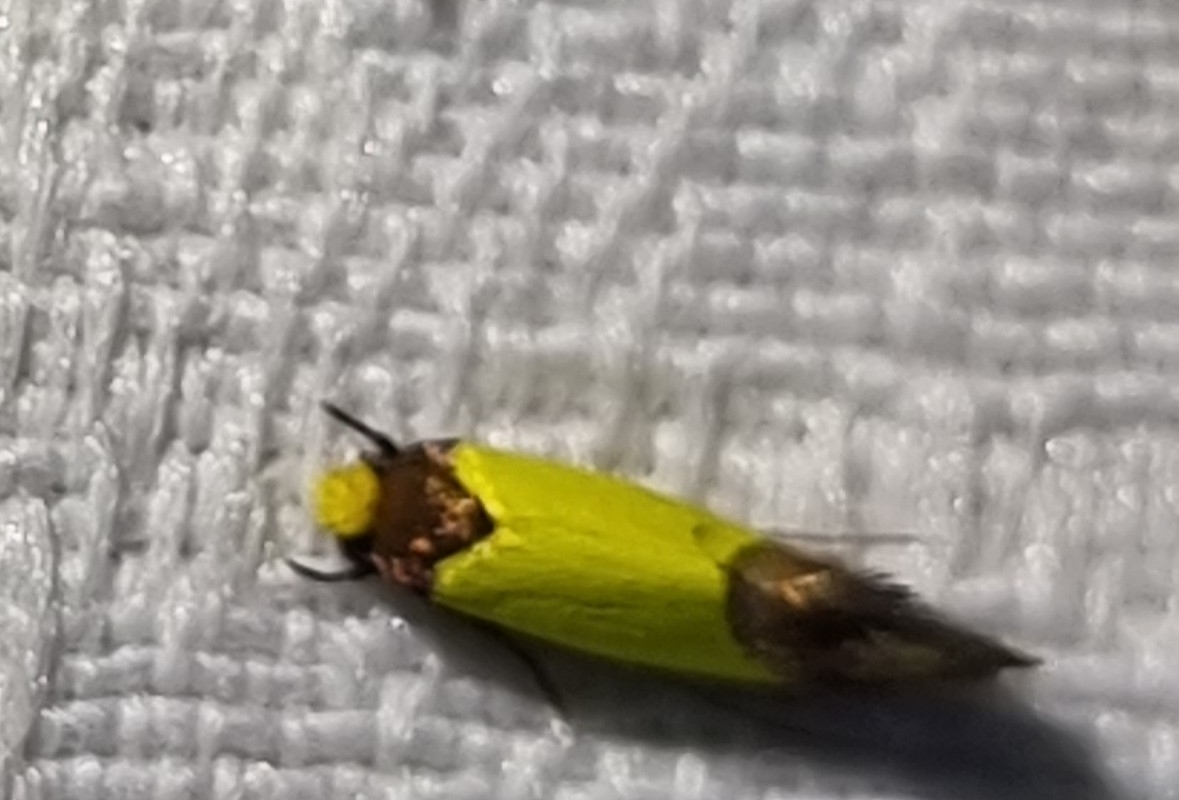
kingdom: Animalia
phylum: Arthropoda
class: Insecta
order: Lepidoptera
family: Tineidae
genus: Edosa
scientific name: Edosa xystidophora
